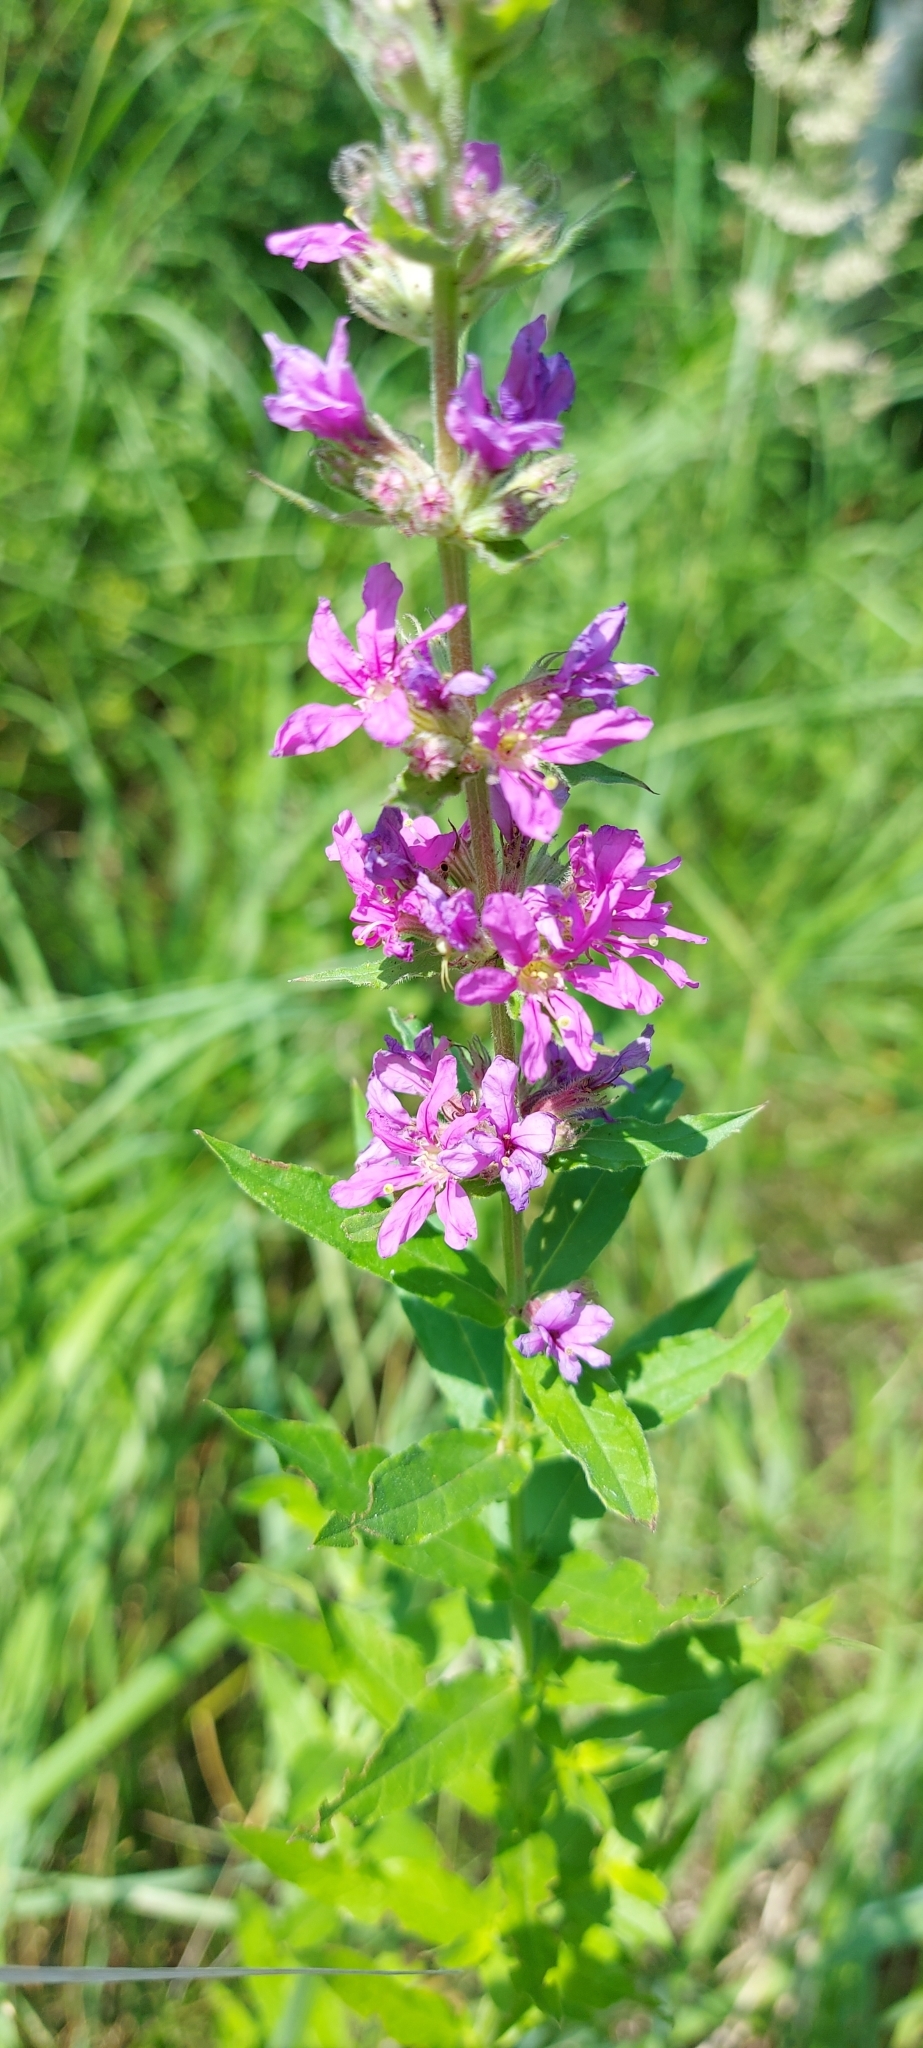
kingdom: Plantae
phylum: Tracheophyta
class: Magnoliopsida
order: Myrtales
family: Lythraceae
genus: Lythrum
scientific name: Lythrum salicaria
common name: Purple loosestrife
